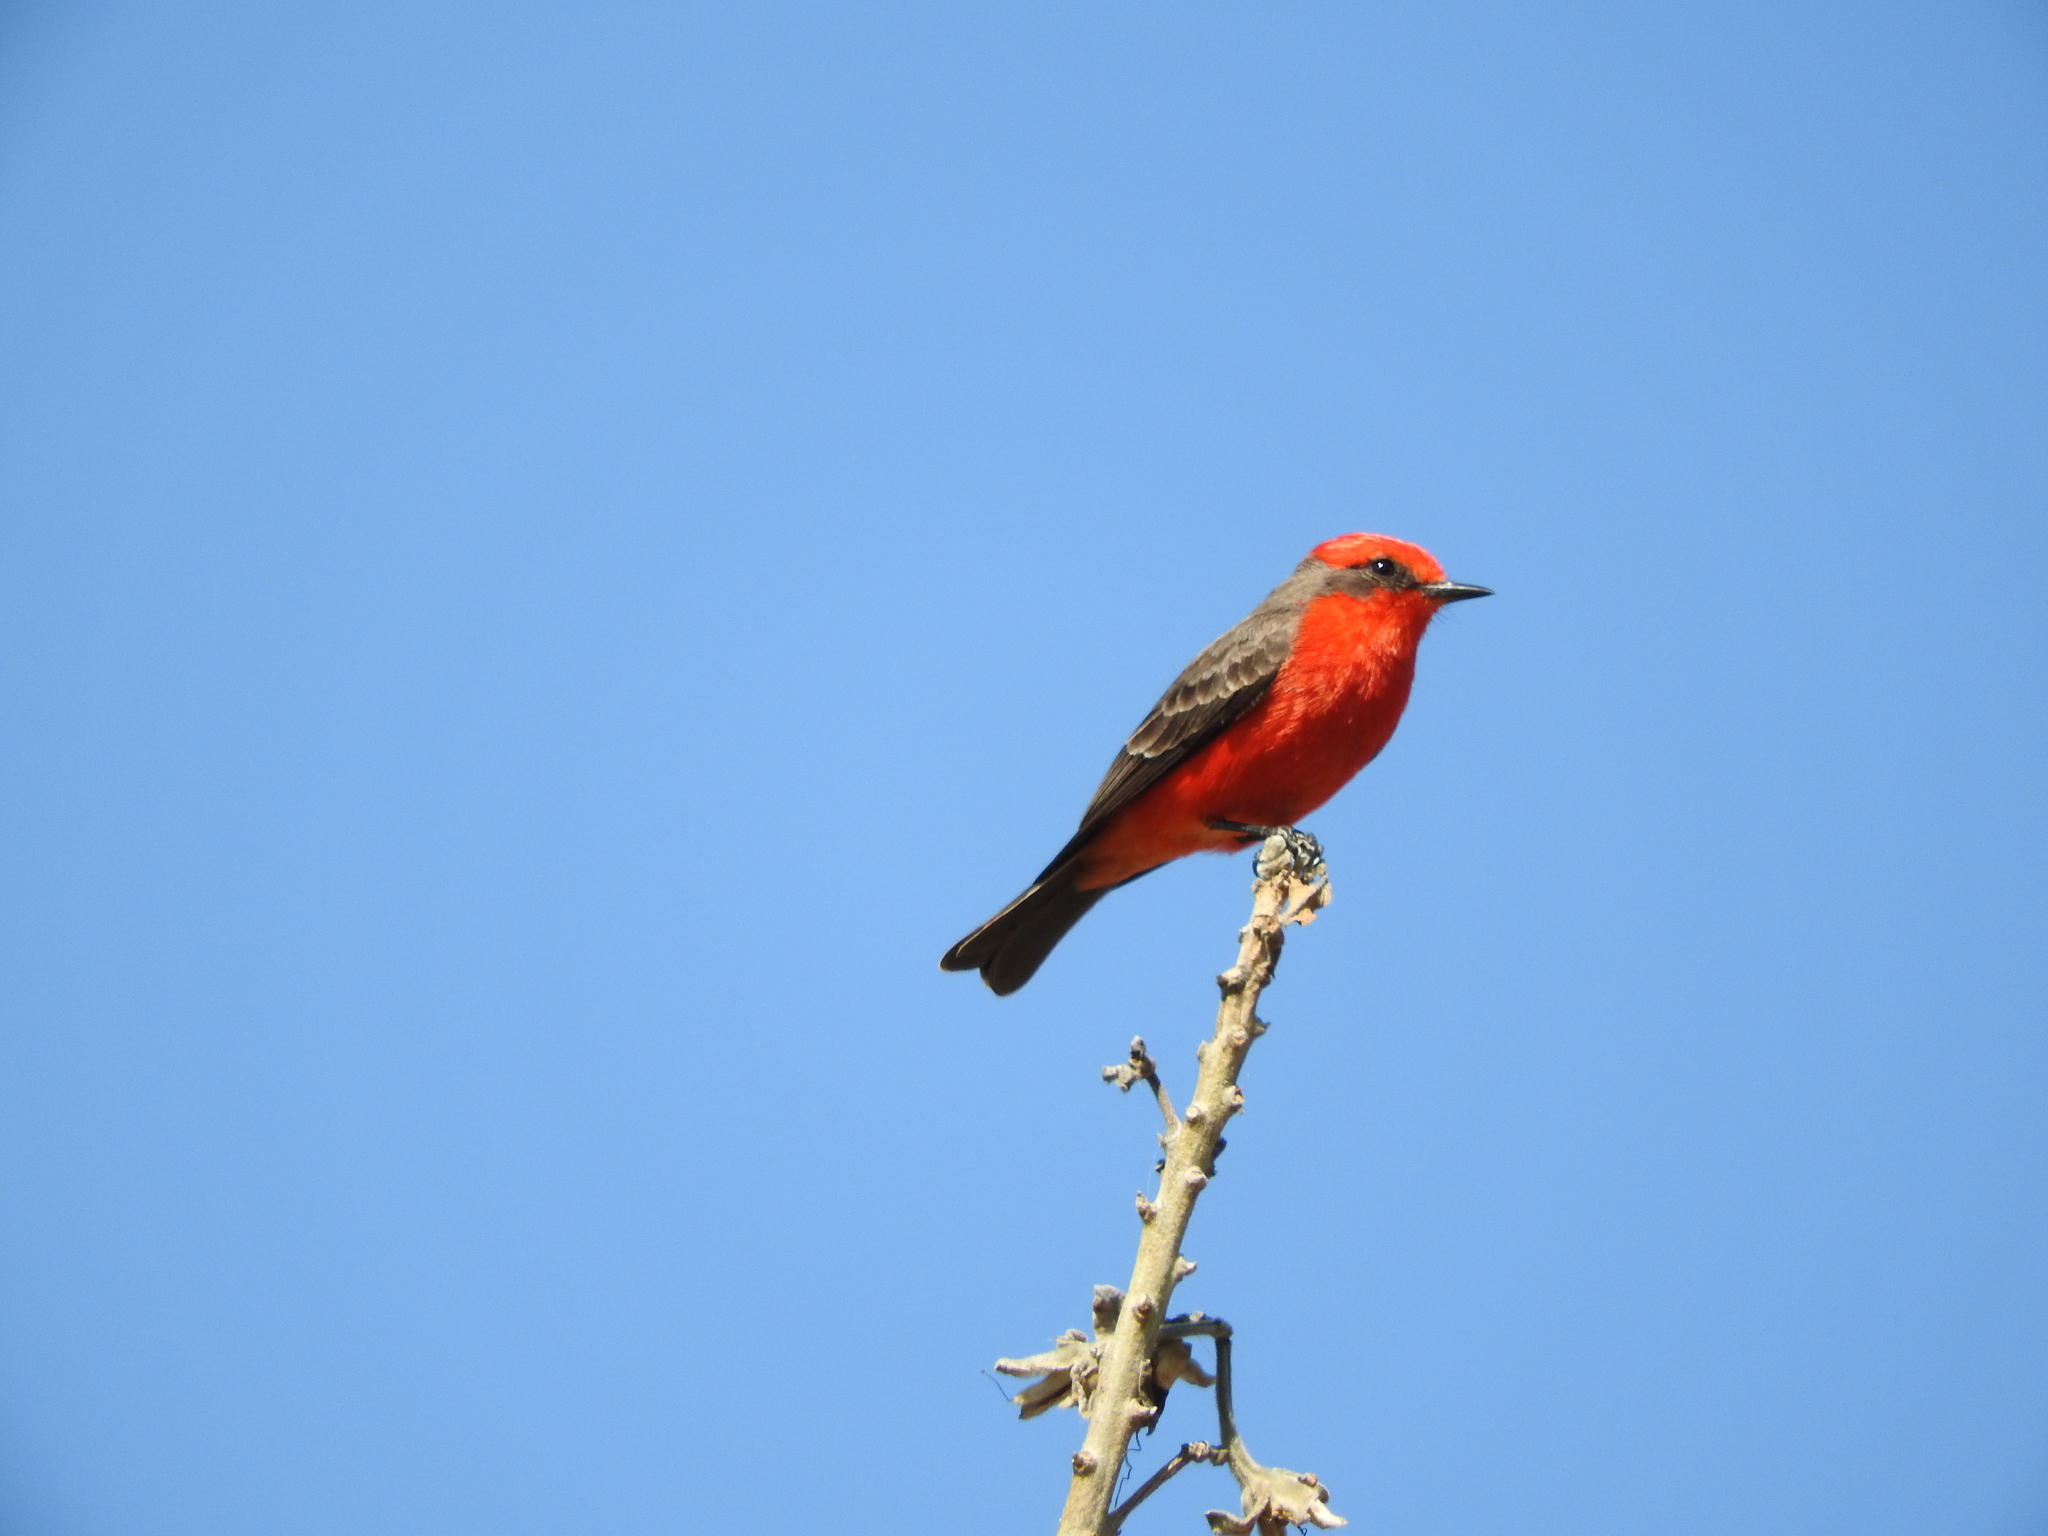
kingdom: Animalia
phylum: Chordata
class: Aves
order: Passeriformes
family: Tyrannidae
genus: Pyrocephalus
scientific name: Pyrocephalus rubinus
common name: Vermilion flycatcher
